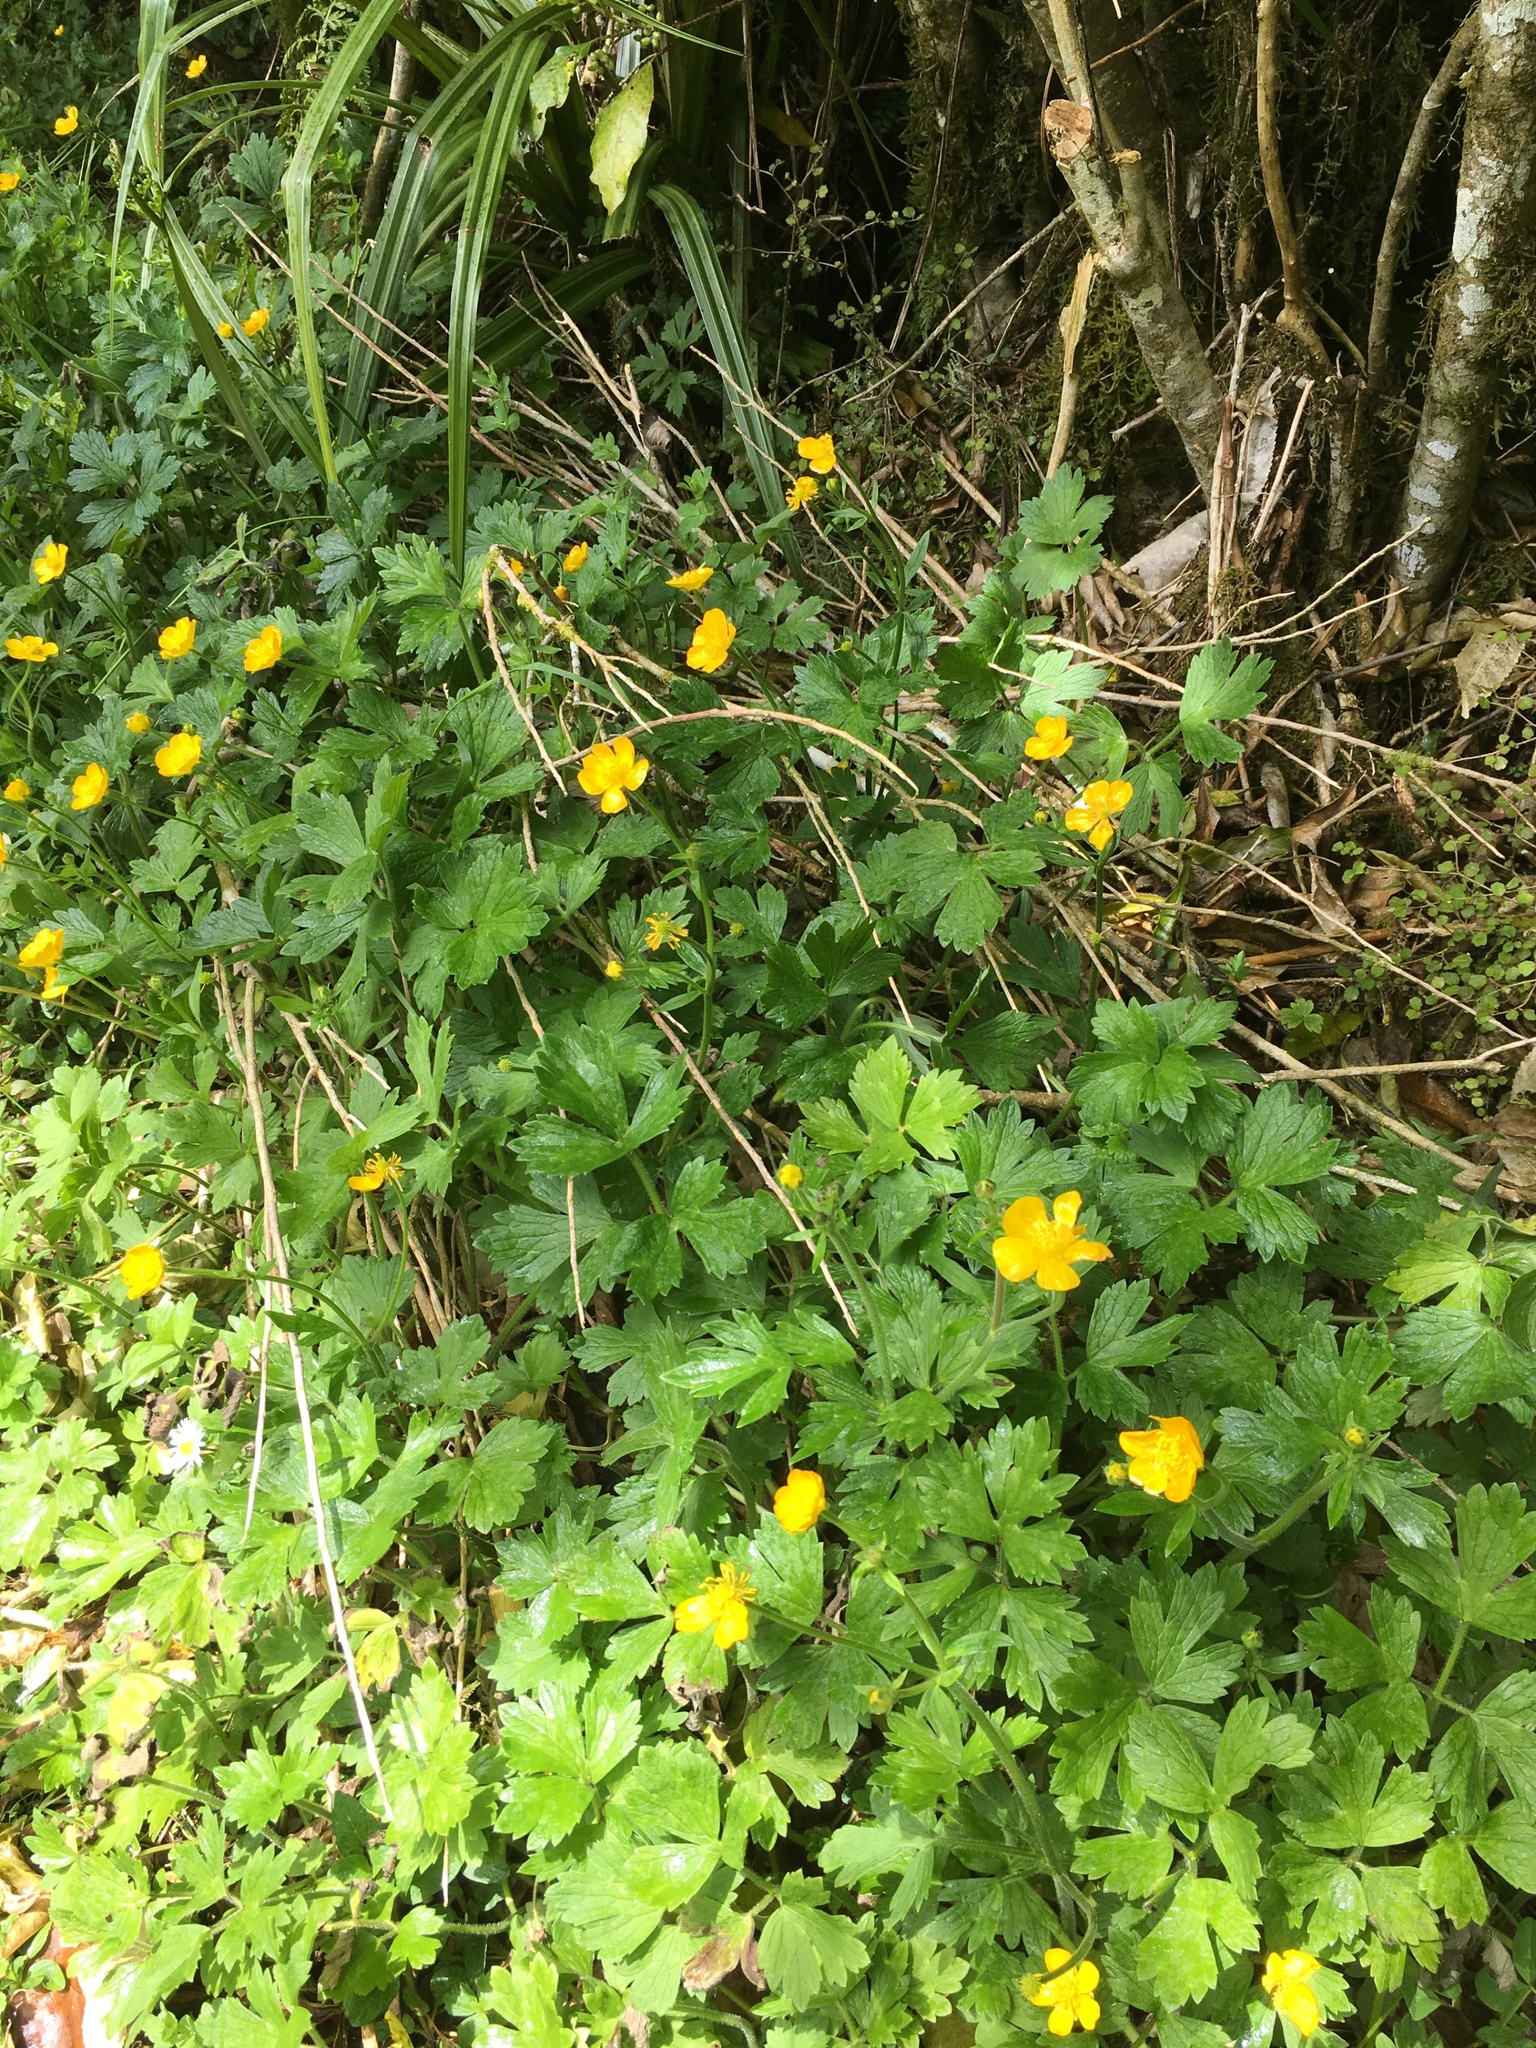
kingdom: Plantae
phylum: Tracheophyta
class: Magnoliopsida
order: Ranunculales
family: Ranunculaceae
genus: Ranunculus
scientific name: Ranunculus repens
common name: Creeping buttercup
